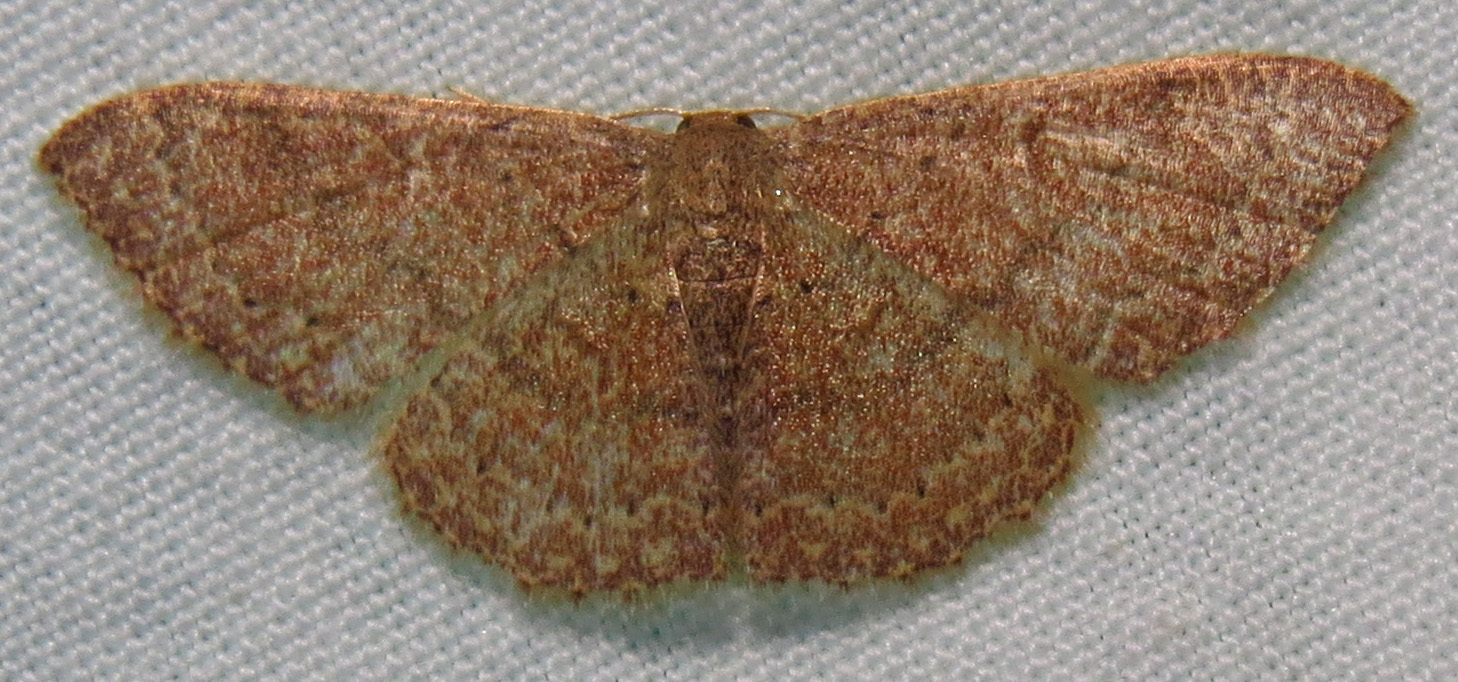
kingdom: Animalia
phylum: Arthropoda
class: Insecta
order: Lepidoptera
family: Geometridae
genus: Pleuroprucha
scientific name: Pleuroprucha insulsaria
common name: Common tan wave
